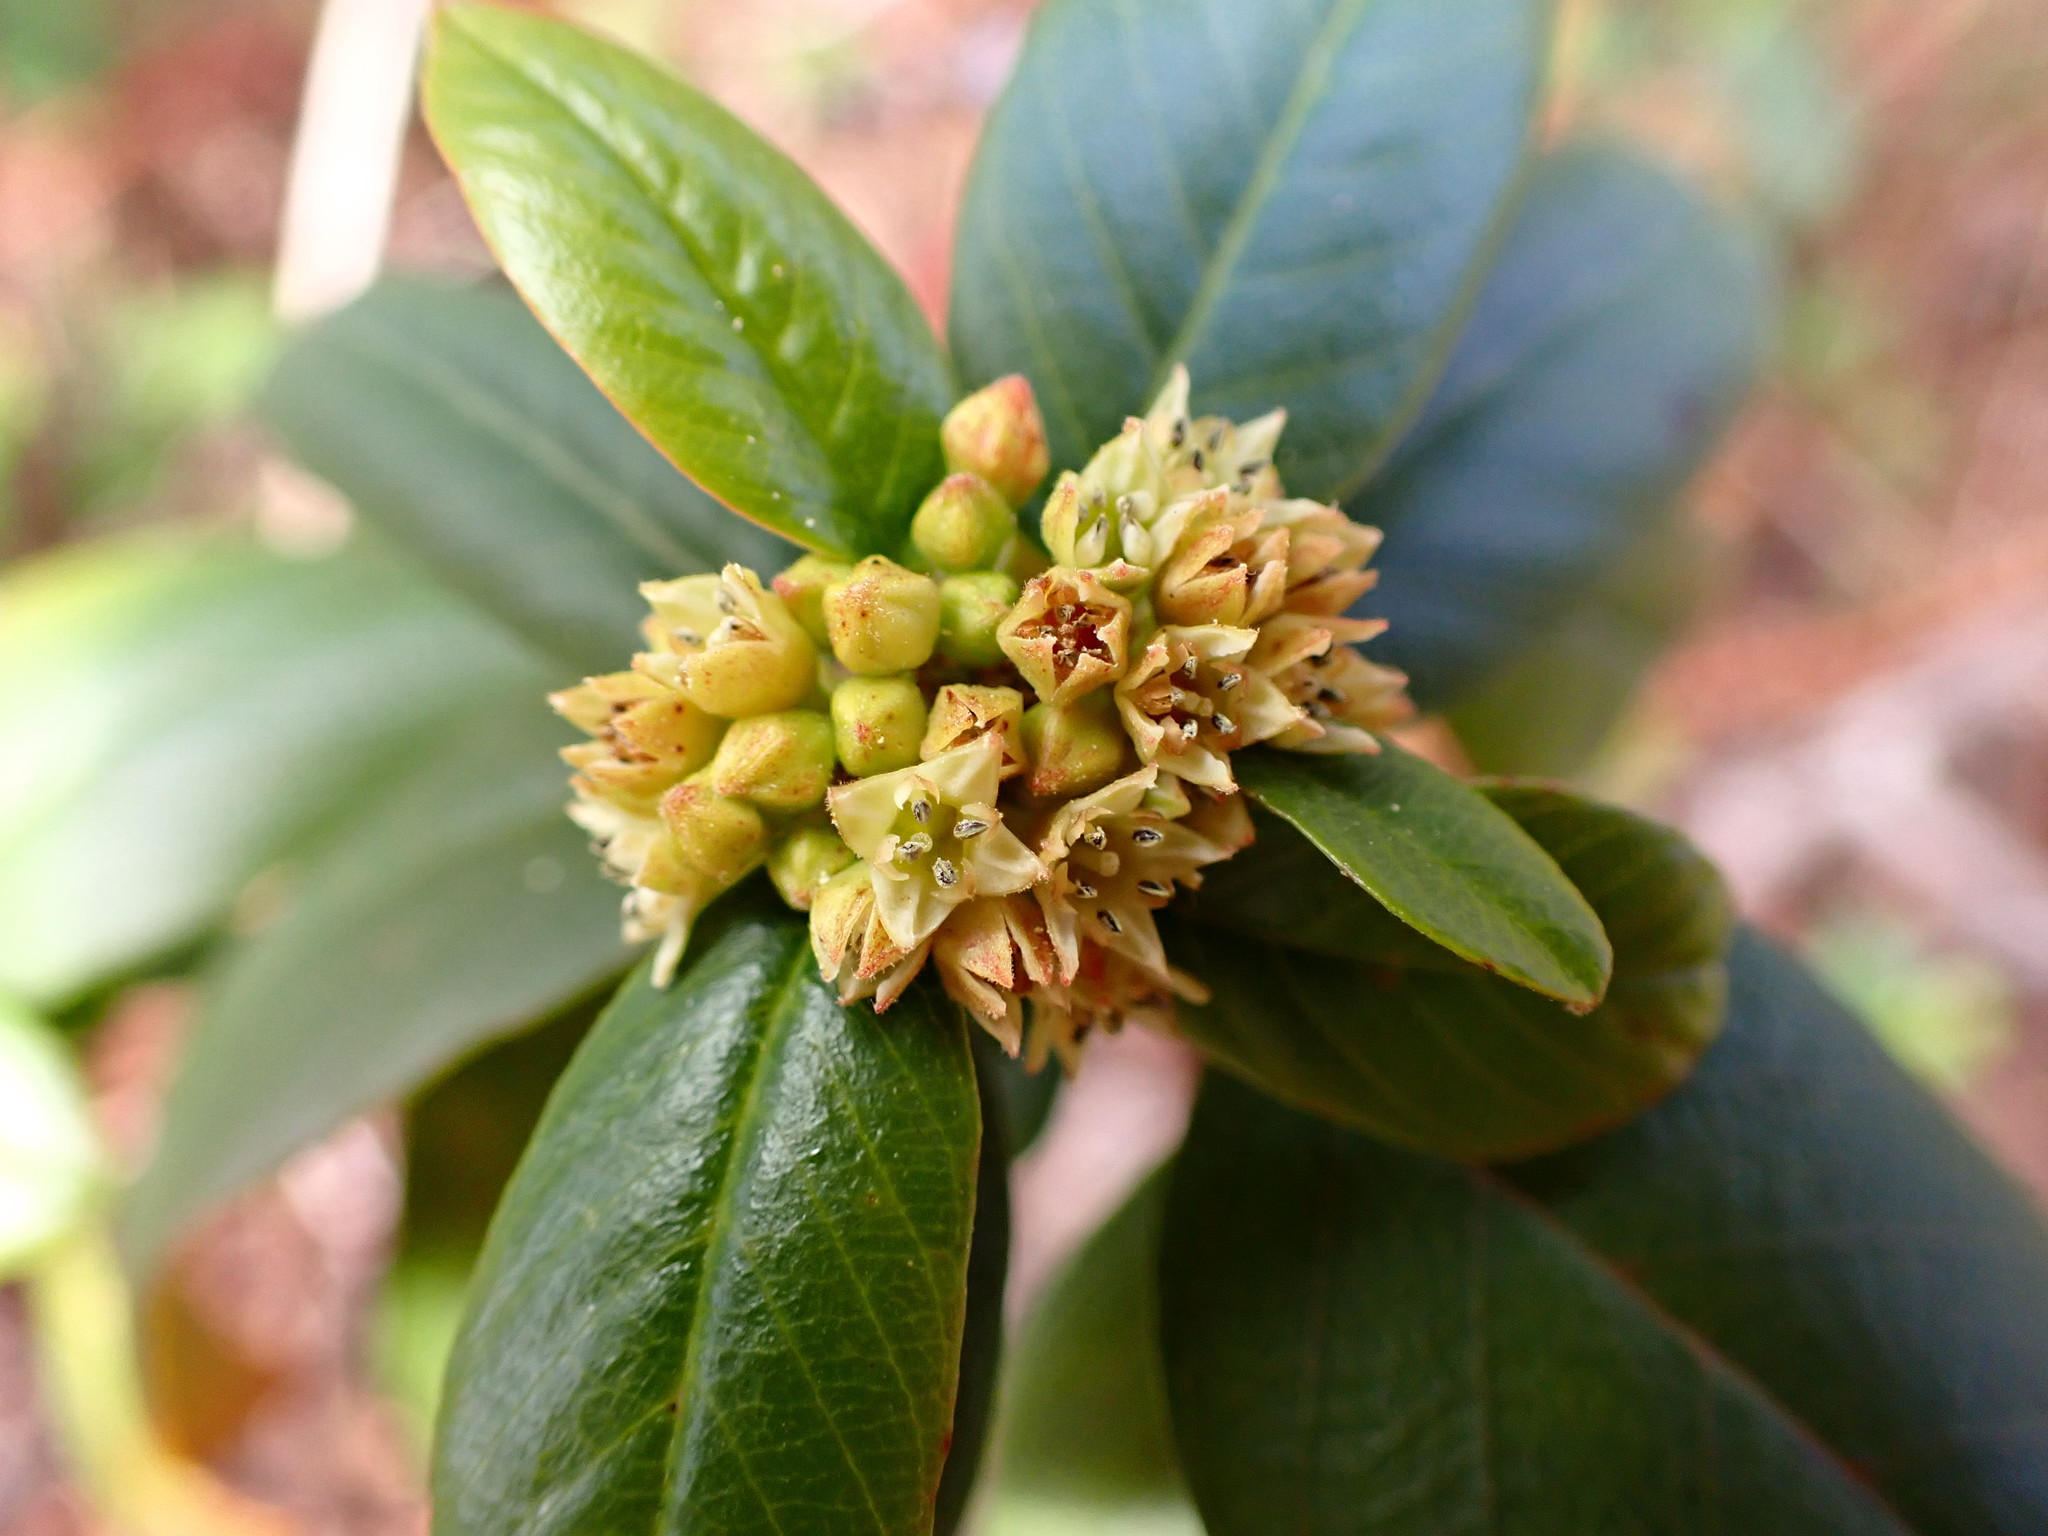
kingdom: Plantae
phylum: Tracheophyta
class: Magnoliopsida
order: Rosales
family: Rhamnaceae
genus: Frangula
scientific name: Frangula californica
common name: California buckthorn
